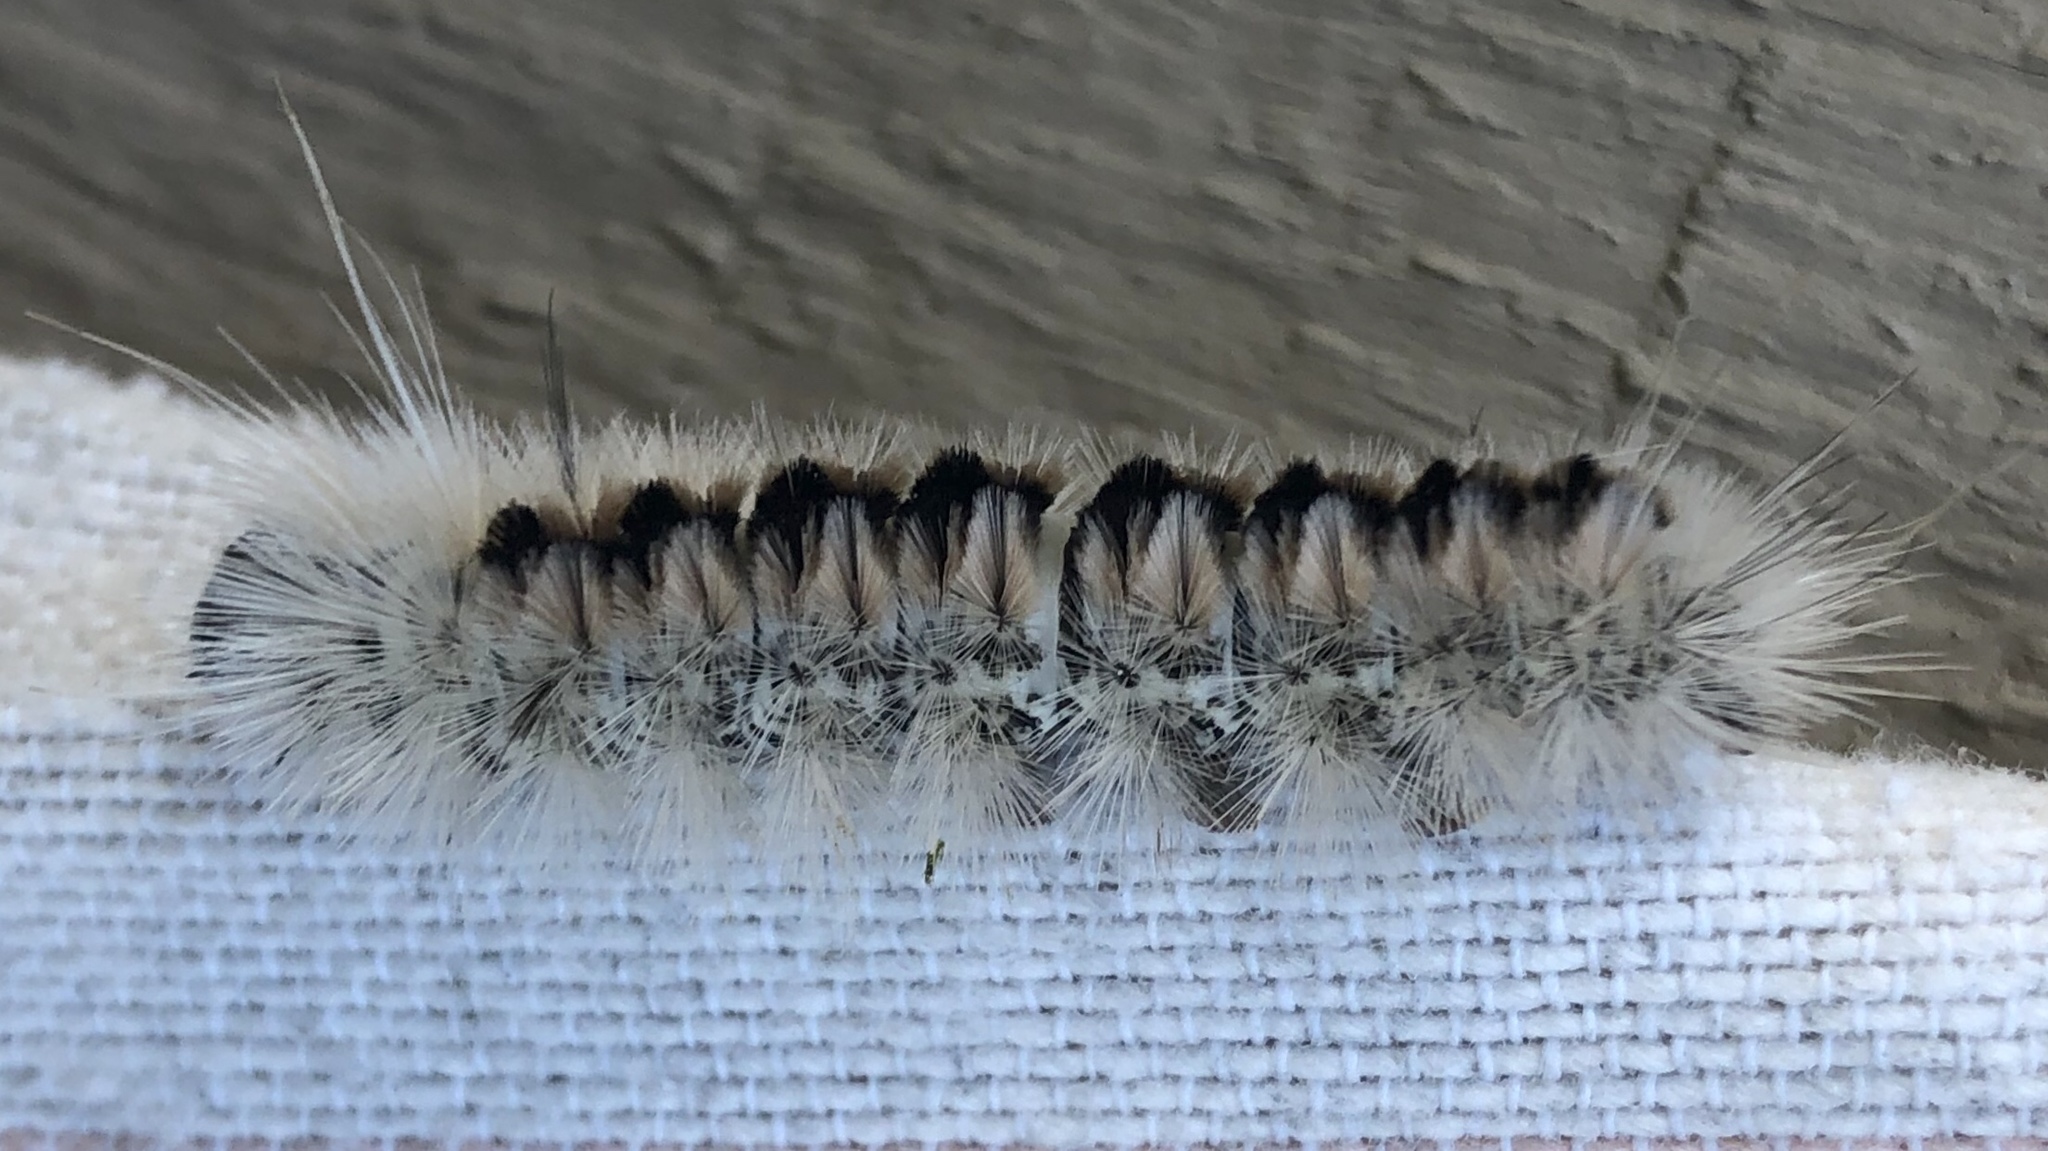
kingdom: Animalia
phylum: Arthropoda
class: Insecta
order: Lepidoptera
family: Erebidae
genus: Lophocampa
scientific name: Lophocampa caryae
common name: Hickory tussock moth
